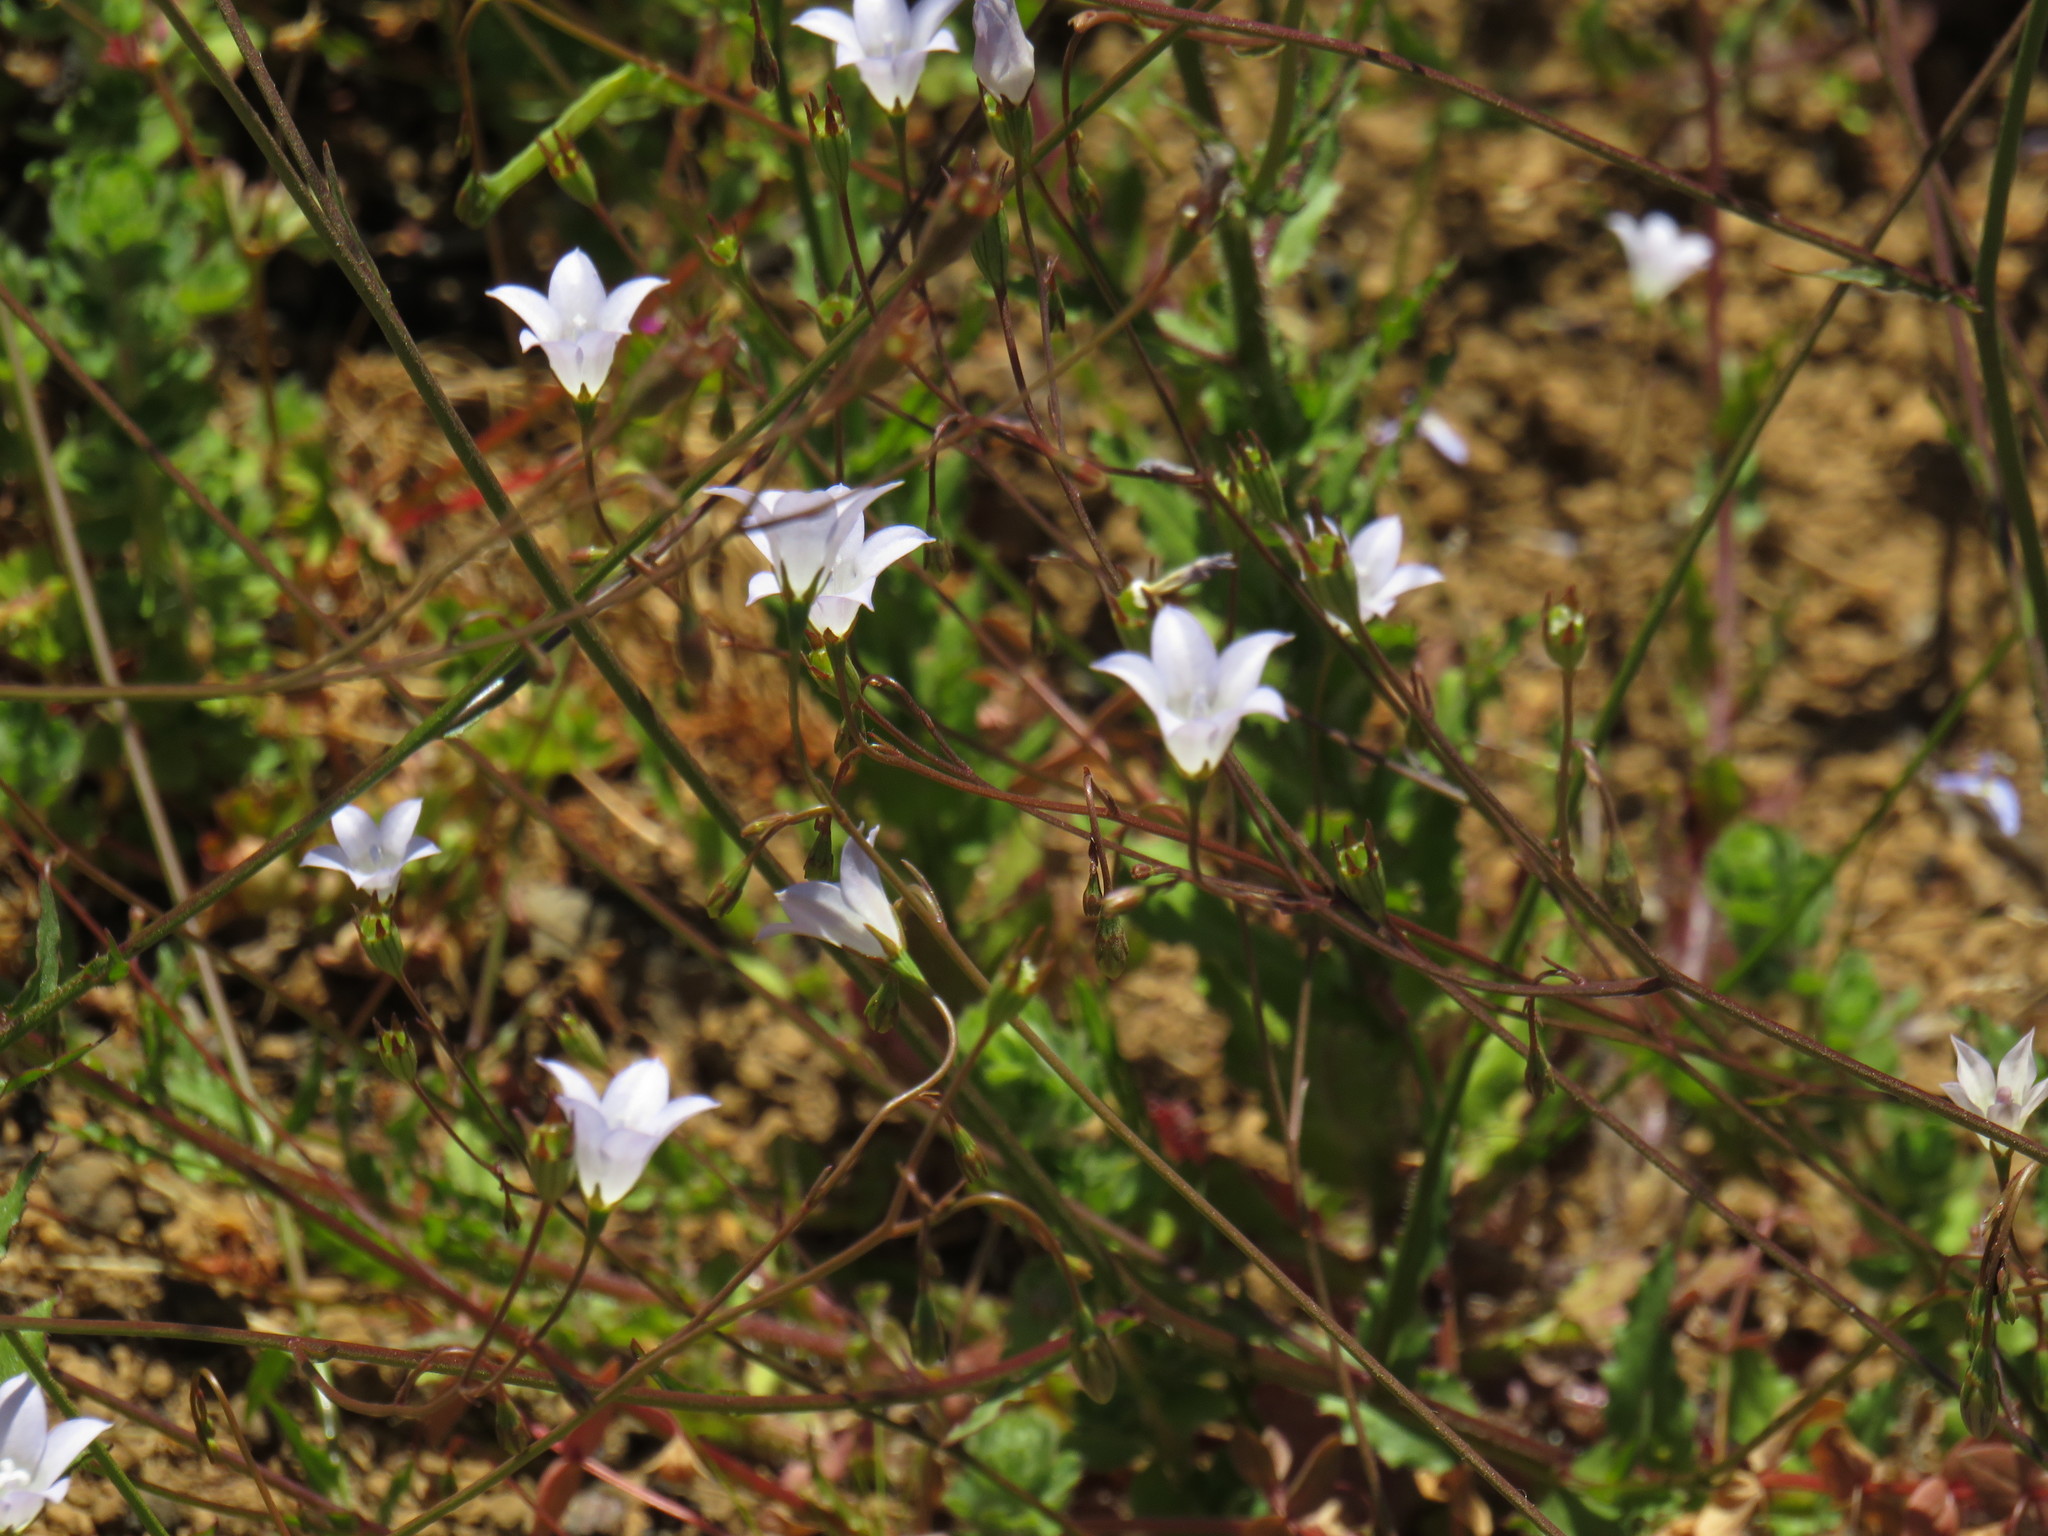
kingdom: Plantae
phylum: Tracheophyta
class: Magnoliopsida
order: Asterales
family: Campanulaceae
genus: Wahlenbergia
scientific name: Wahlenbergia obovata
